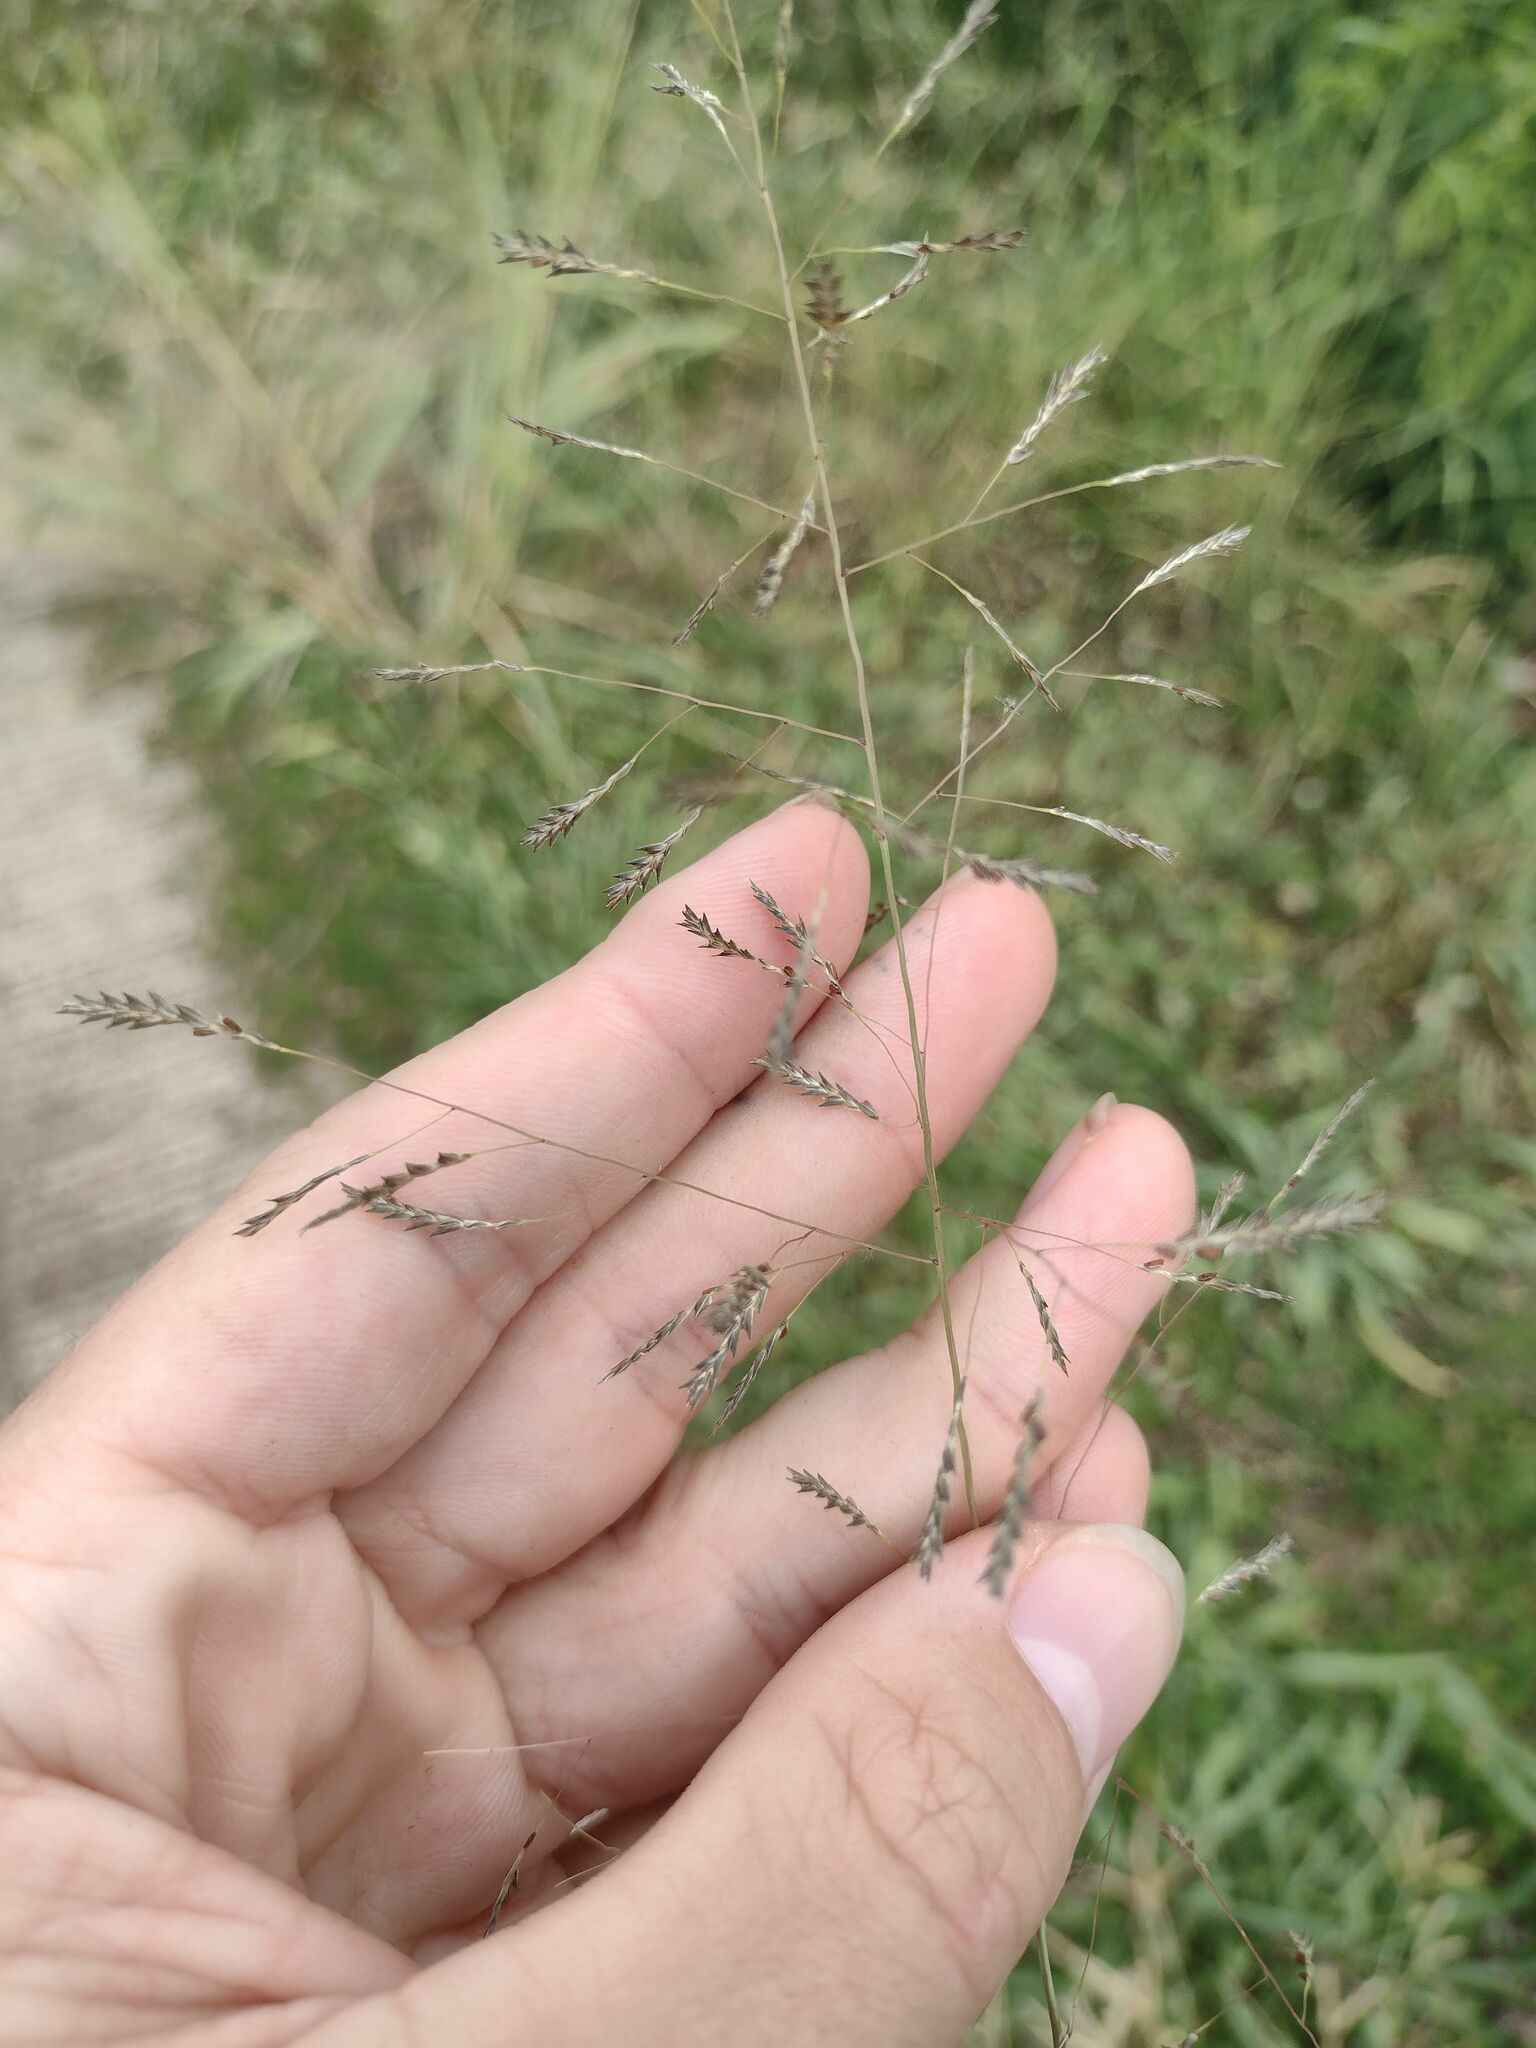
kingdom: Plantae
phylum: Tracheophyta
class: Liliopsida
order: Poales
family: Poaceae
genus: Eragrostis
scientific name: Eragrostis tenuifolia
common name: Elastic grass
